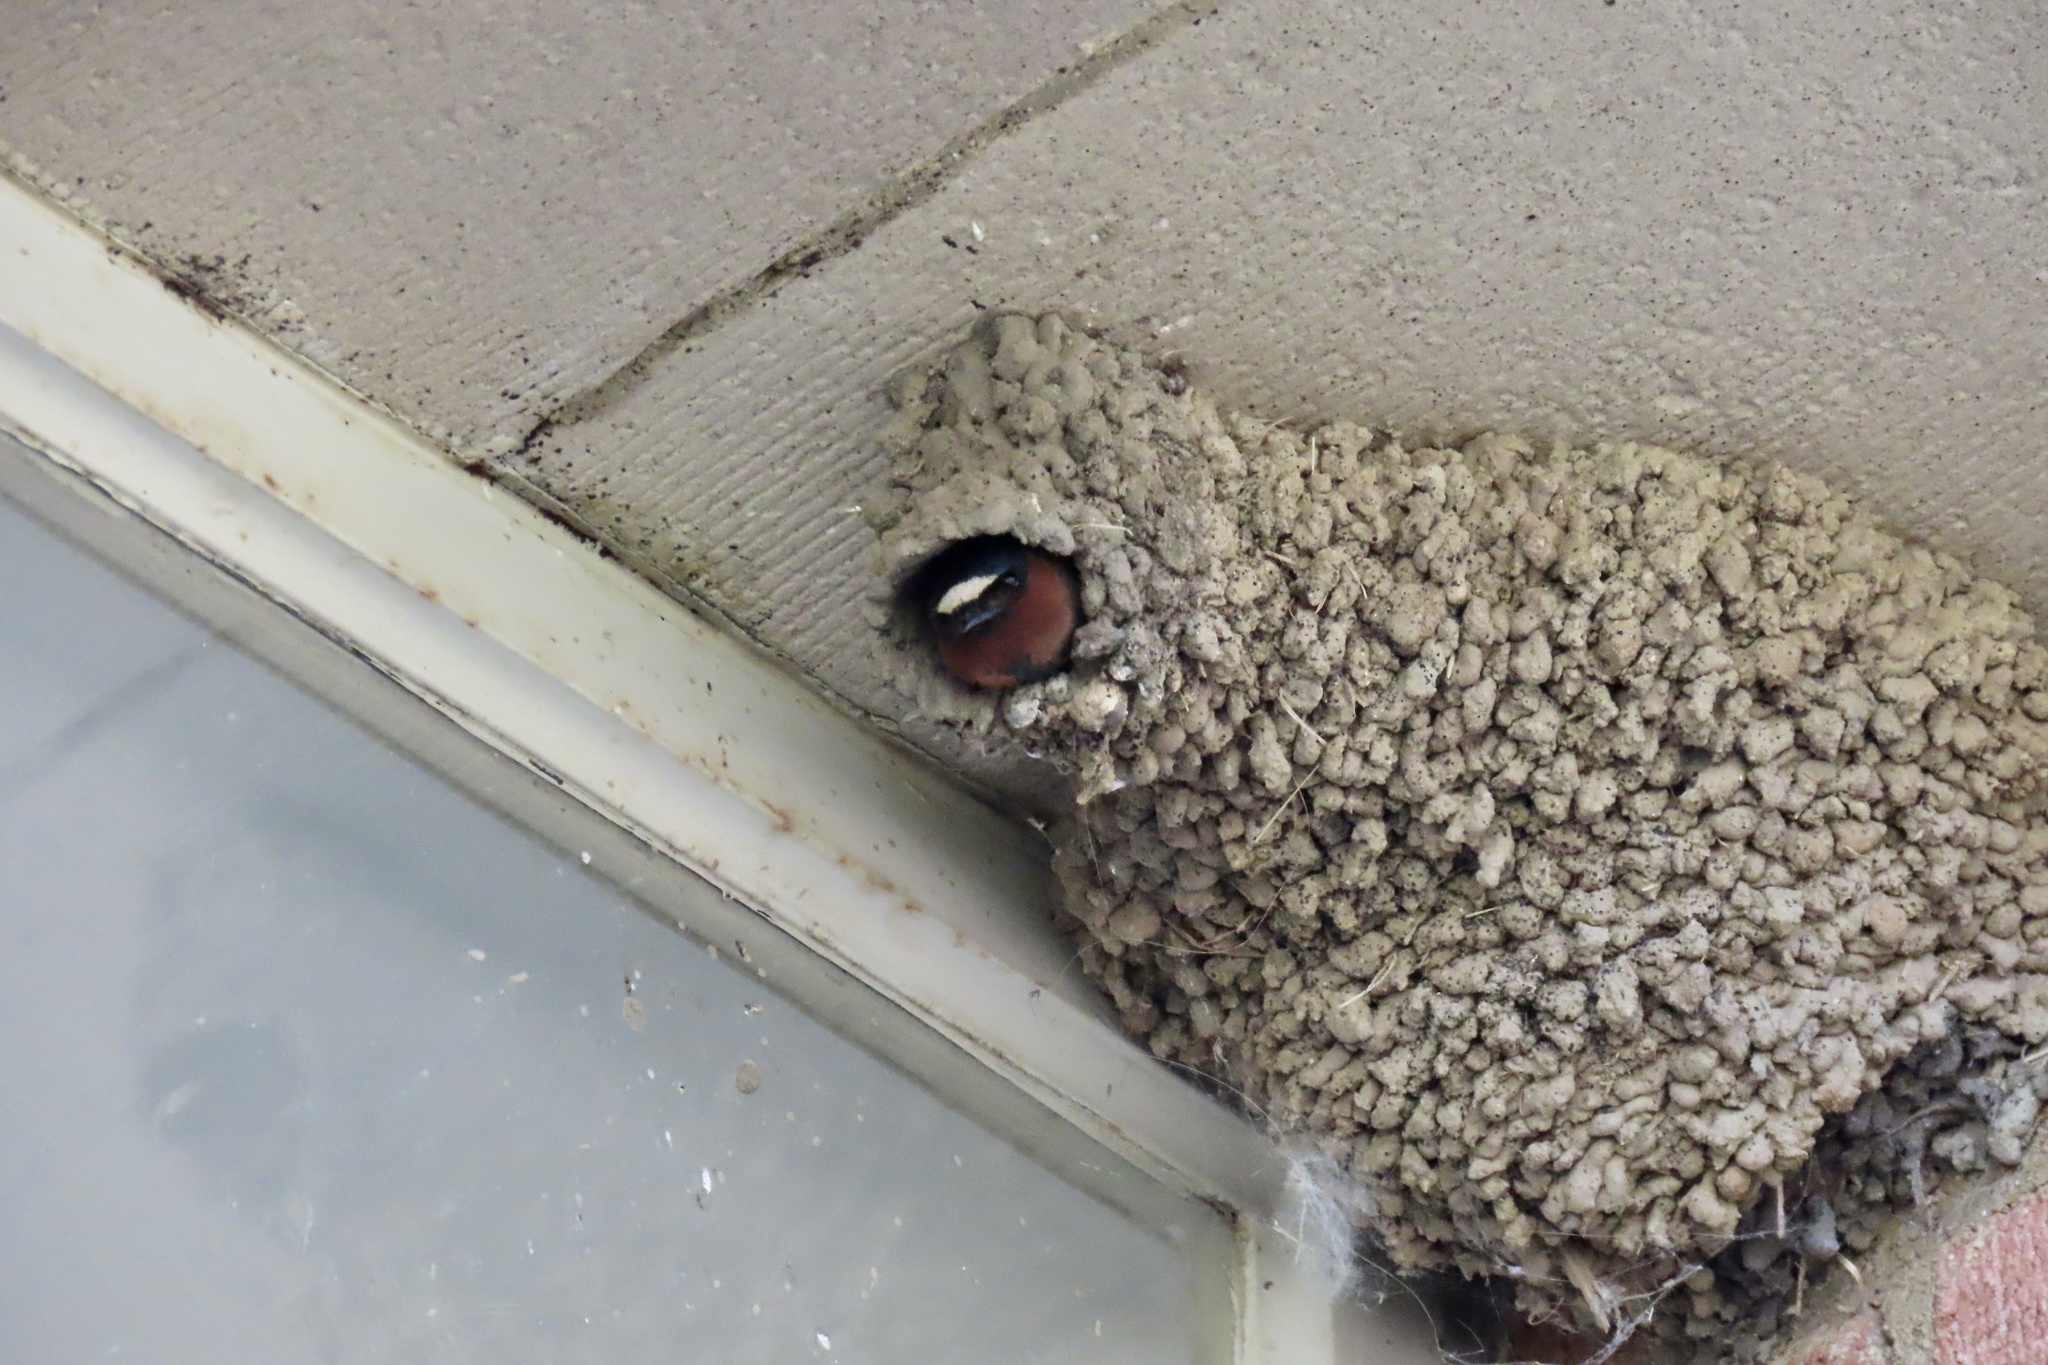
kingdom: Animalia
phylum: Chordata
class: Aves
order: Passeriformes
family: Hirundinidae
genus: Petrochelidon
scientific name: Petrochelidon pyrrhonota
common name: American cliff swallow
